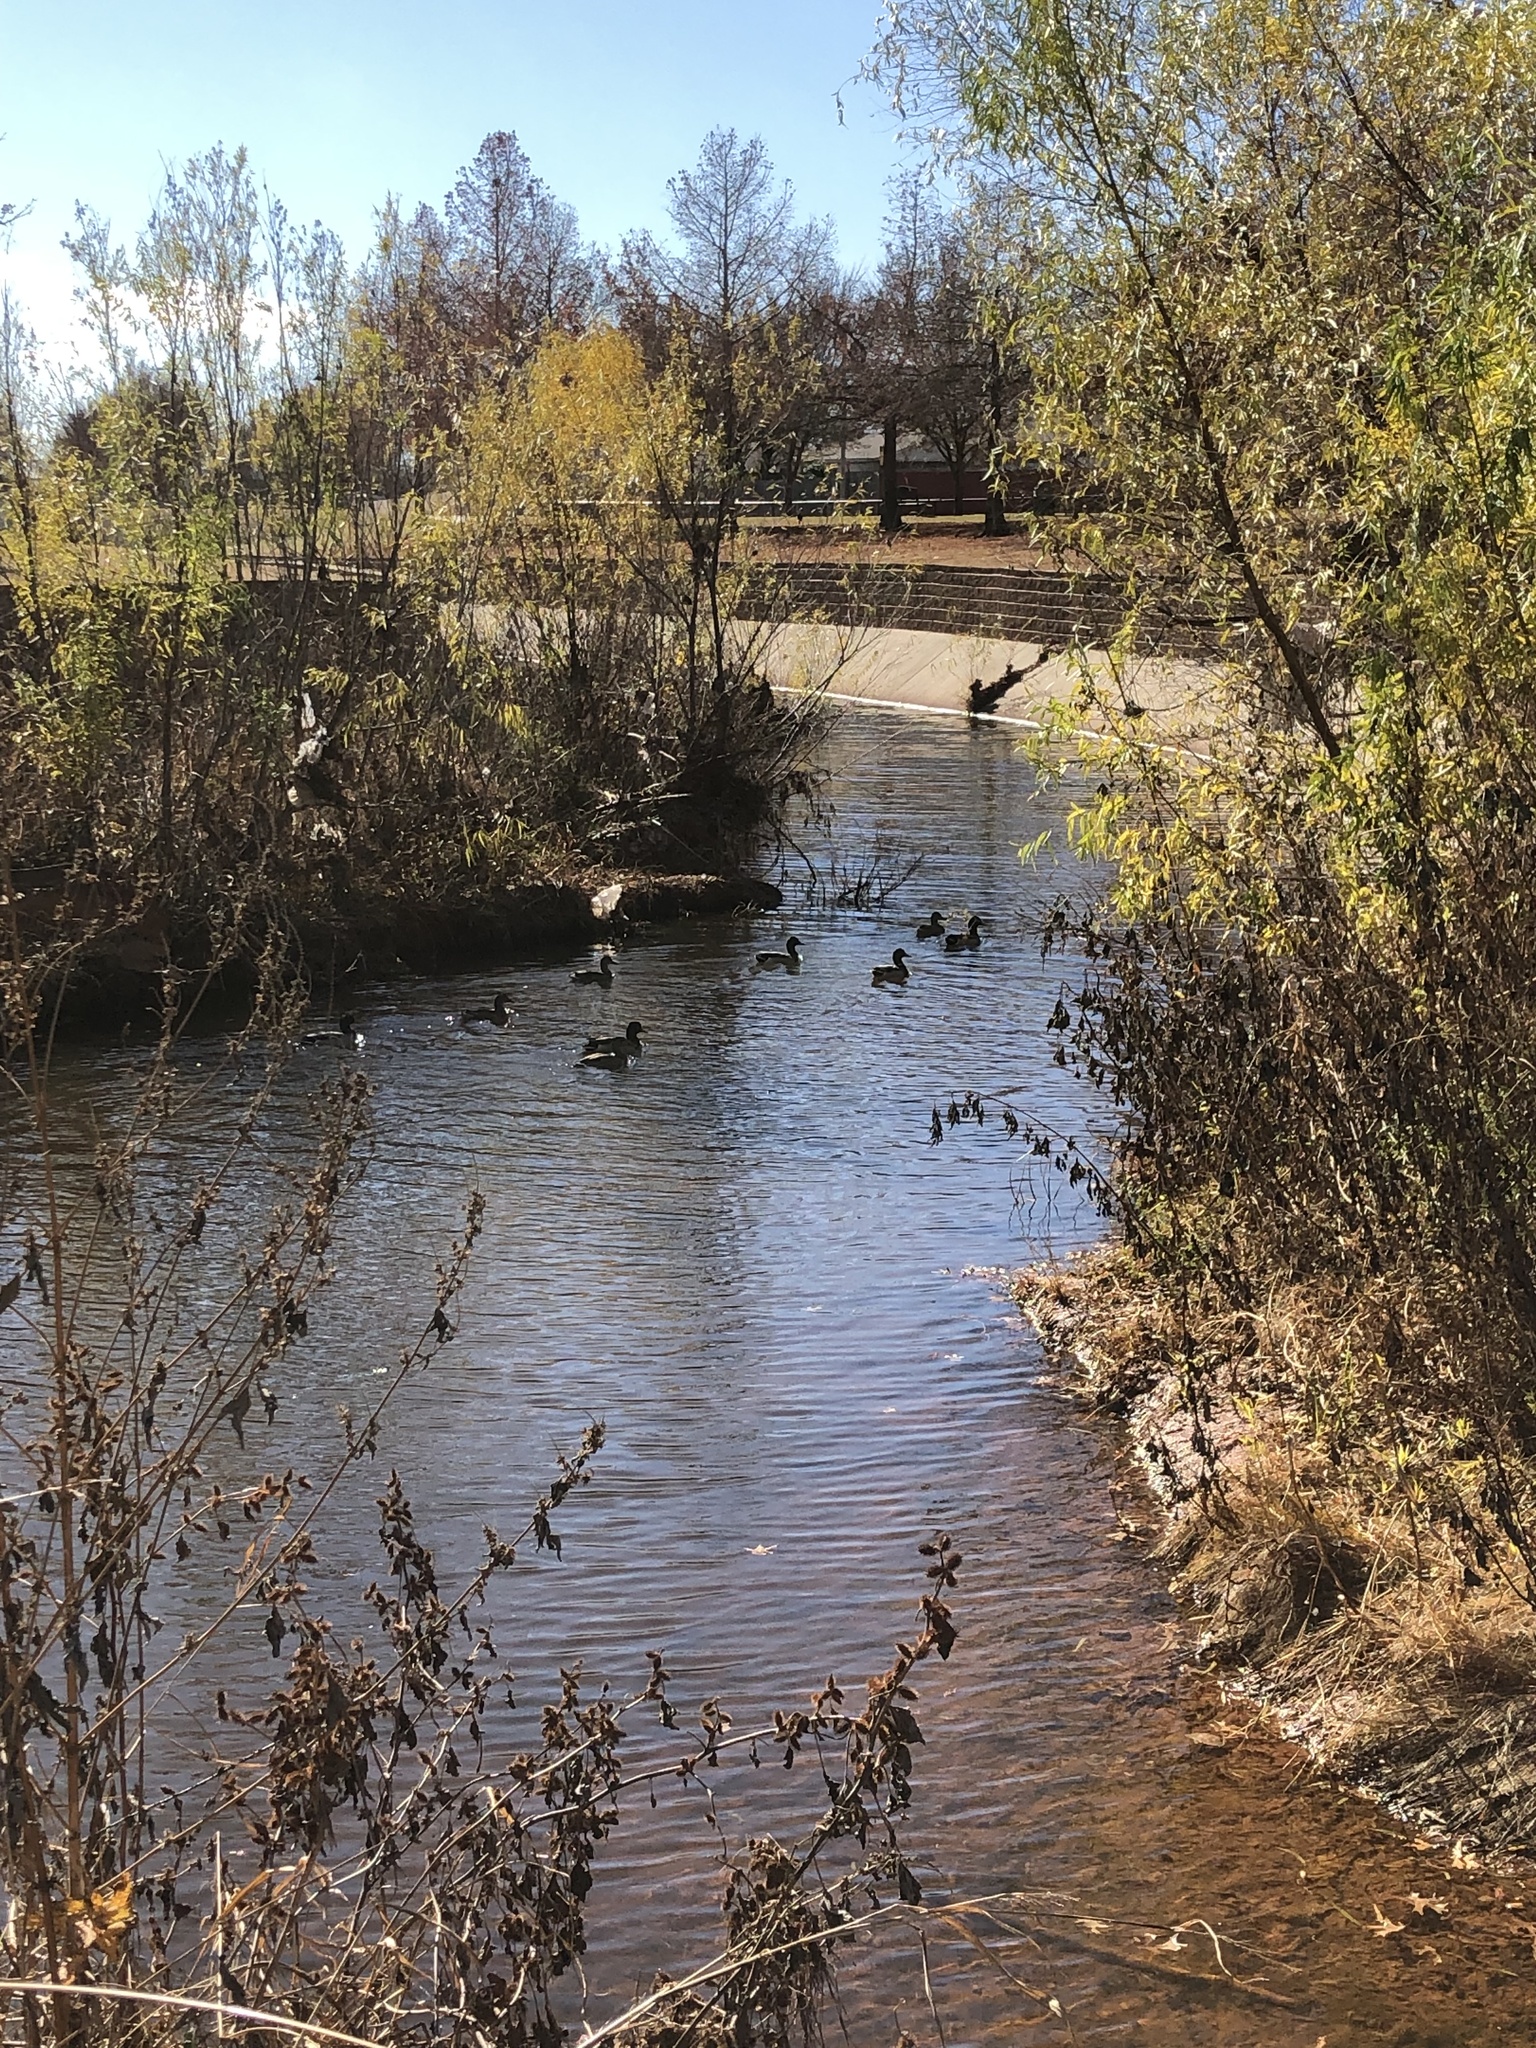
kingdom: Animalia
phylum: Chordata
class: Aves
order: Anseriformes
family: Anatidae
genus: Anas
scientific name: Anas platyrhynchos
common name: Mallard
